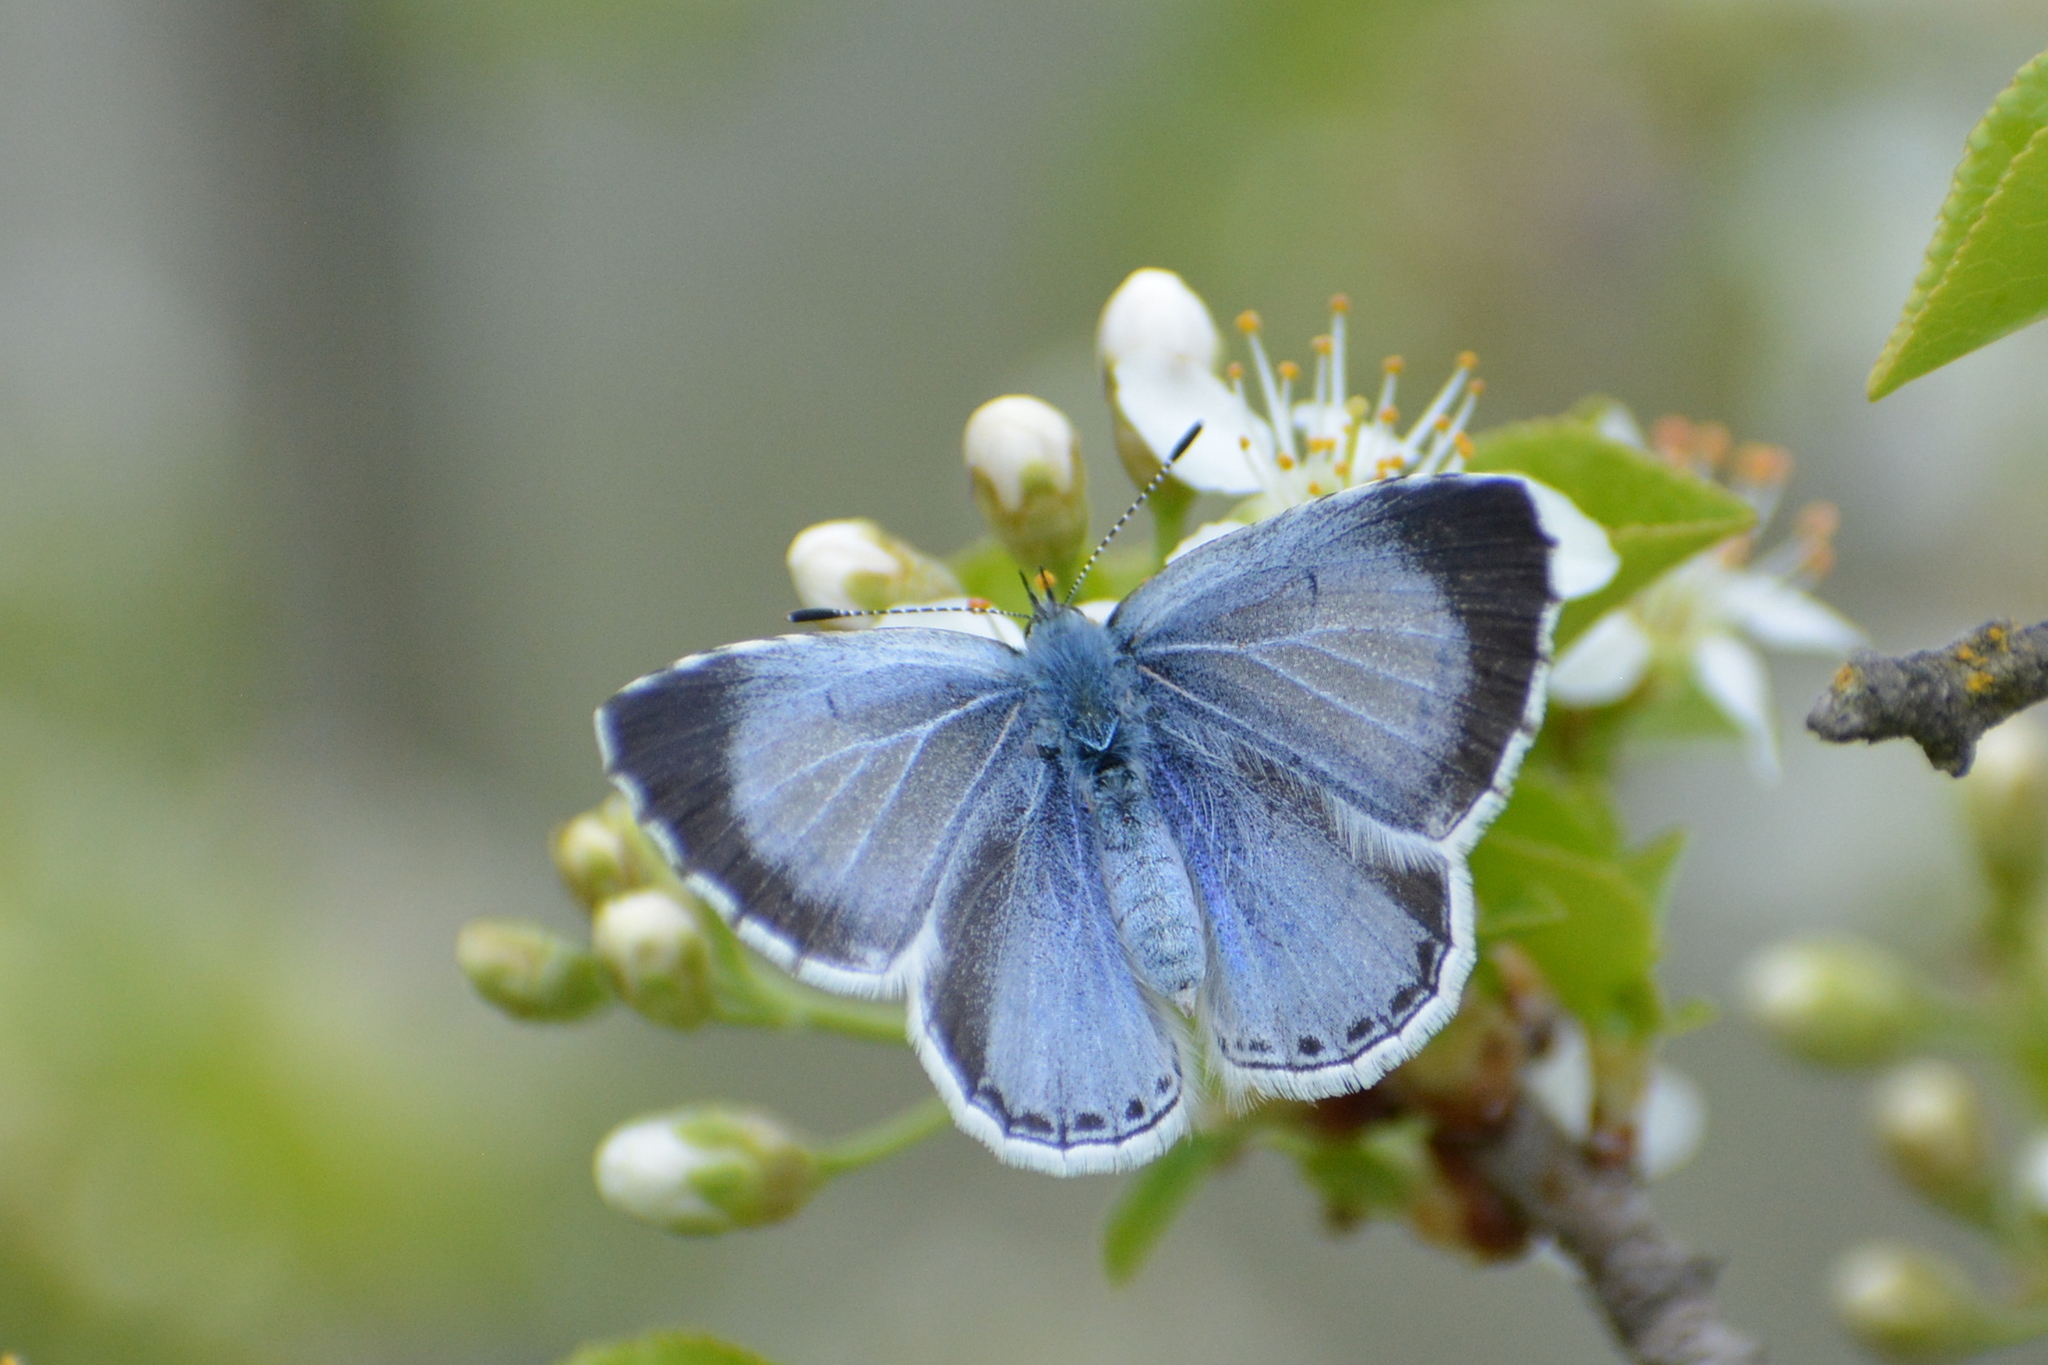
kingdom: Animalia
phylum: Arthropoda
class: Insecta
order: Lepidoptera
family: Lycaenidae
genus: Celastrina
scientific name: Celastrina argiolus
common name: Holly blue
